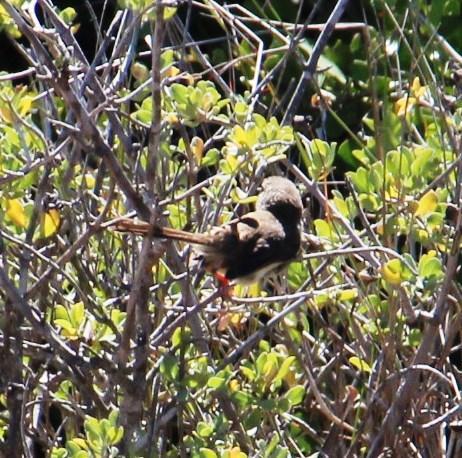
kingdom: Animalia
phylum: Chordata
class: Aves
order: Passeriformes
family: Cisticolidae
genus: Prinia
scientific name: Prinia maculosa
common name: Karoo prinia
